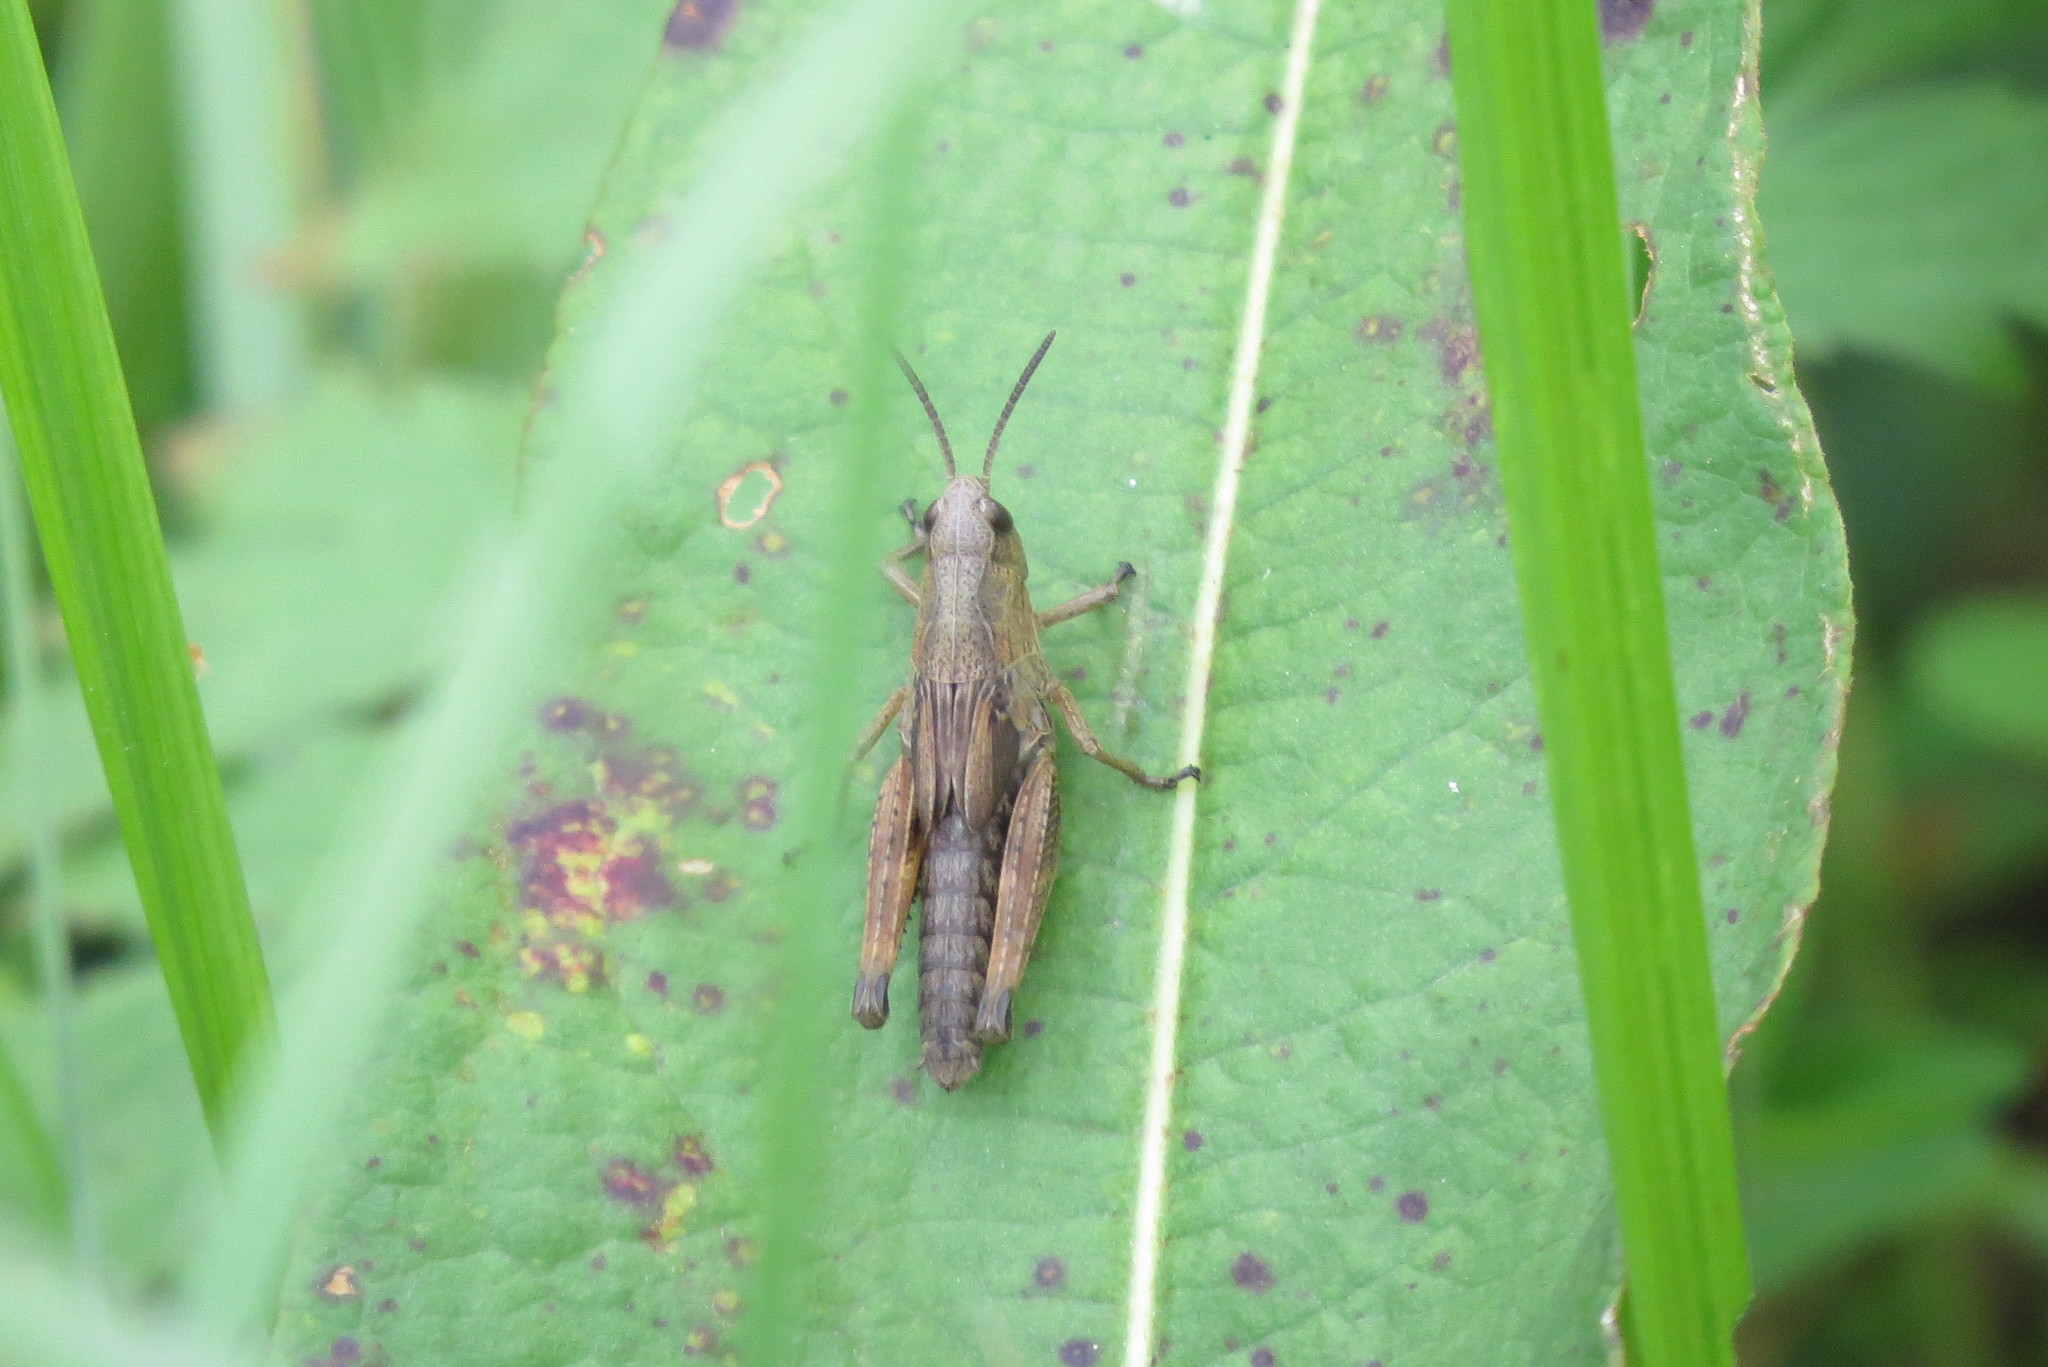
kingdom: Animalia
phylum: Arthropoda
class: Insecta
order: Orthoptera
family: Acrididae
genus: Stauroderus
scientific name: Stauroderus scalaris
